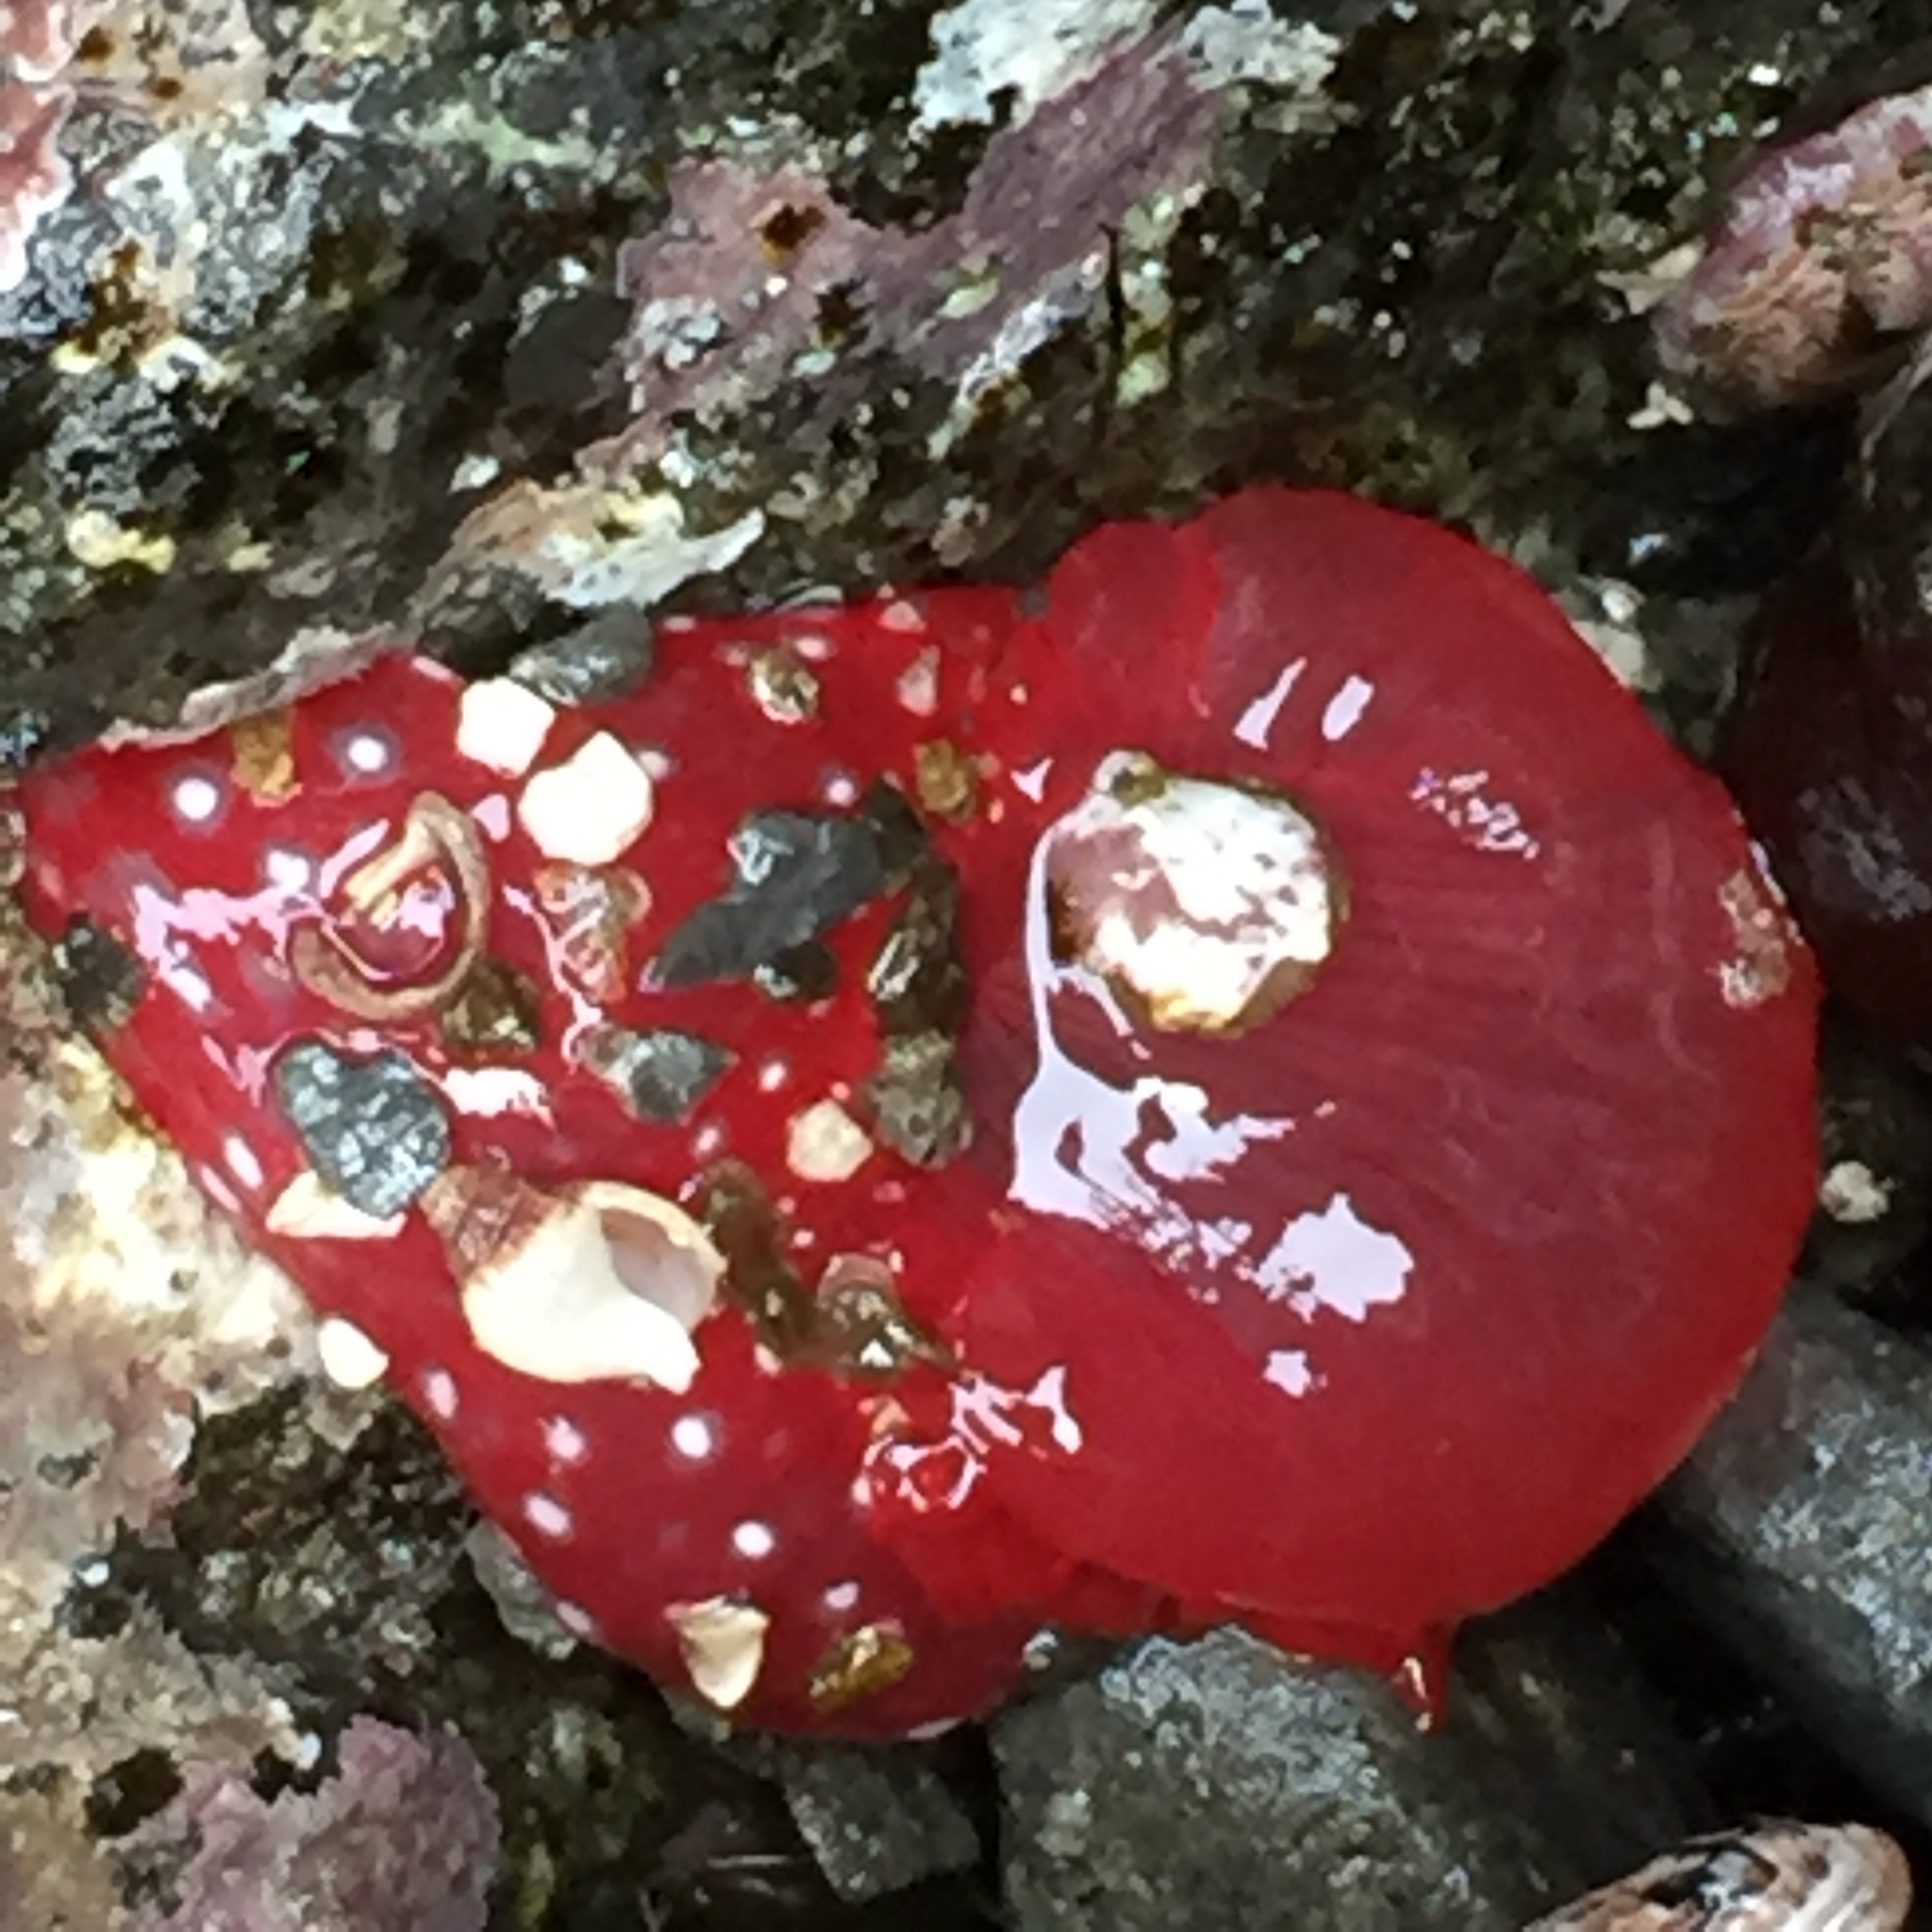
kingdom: Animalia
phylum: Cnidaria
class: Anthozoa
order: Actiniaria
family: Actiniidae
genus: Cribrinopsis
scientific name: Cribrinopsis albopunctata
